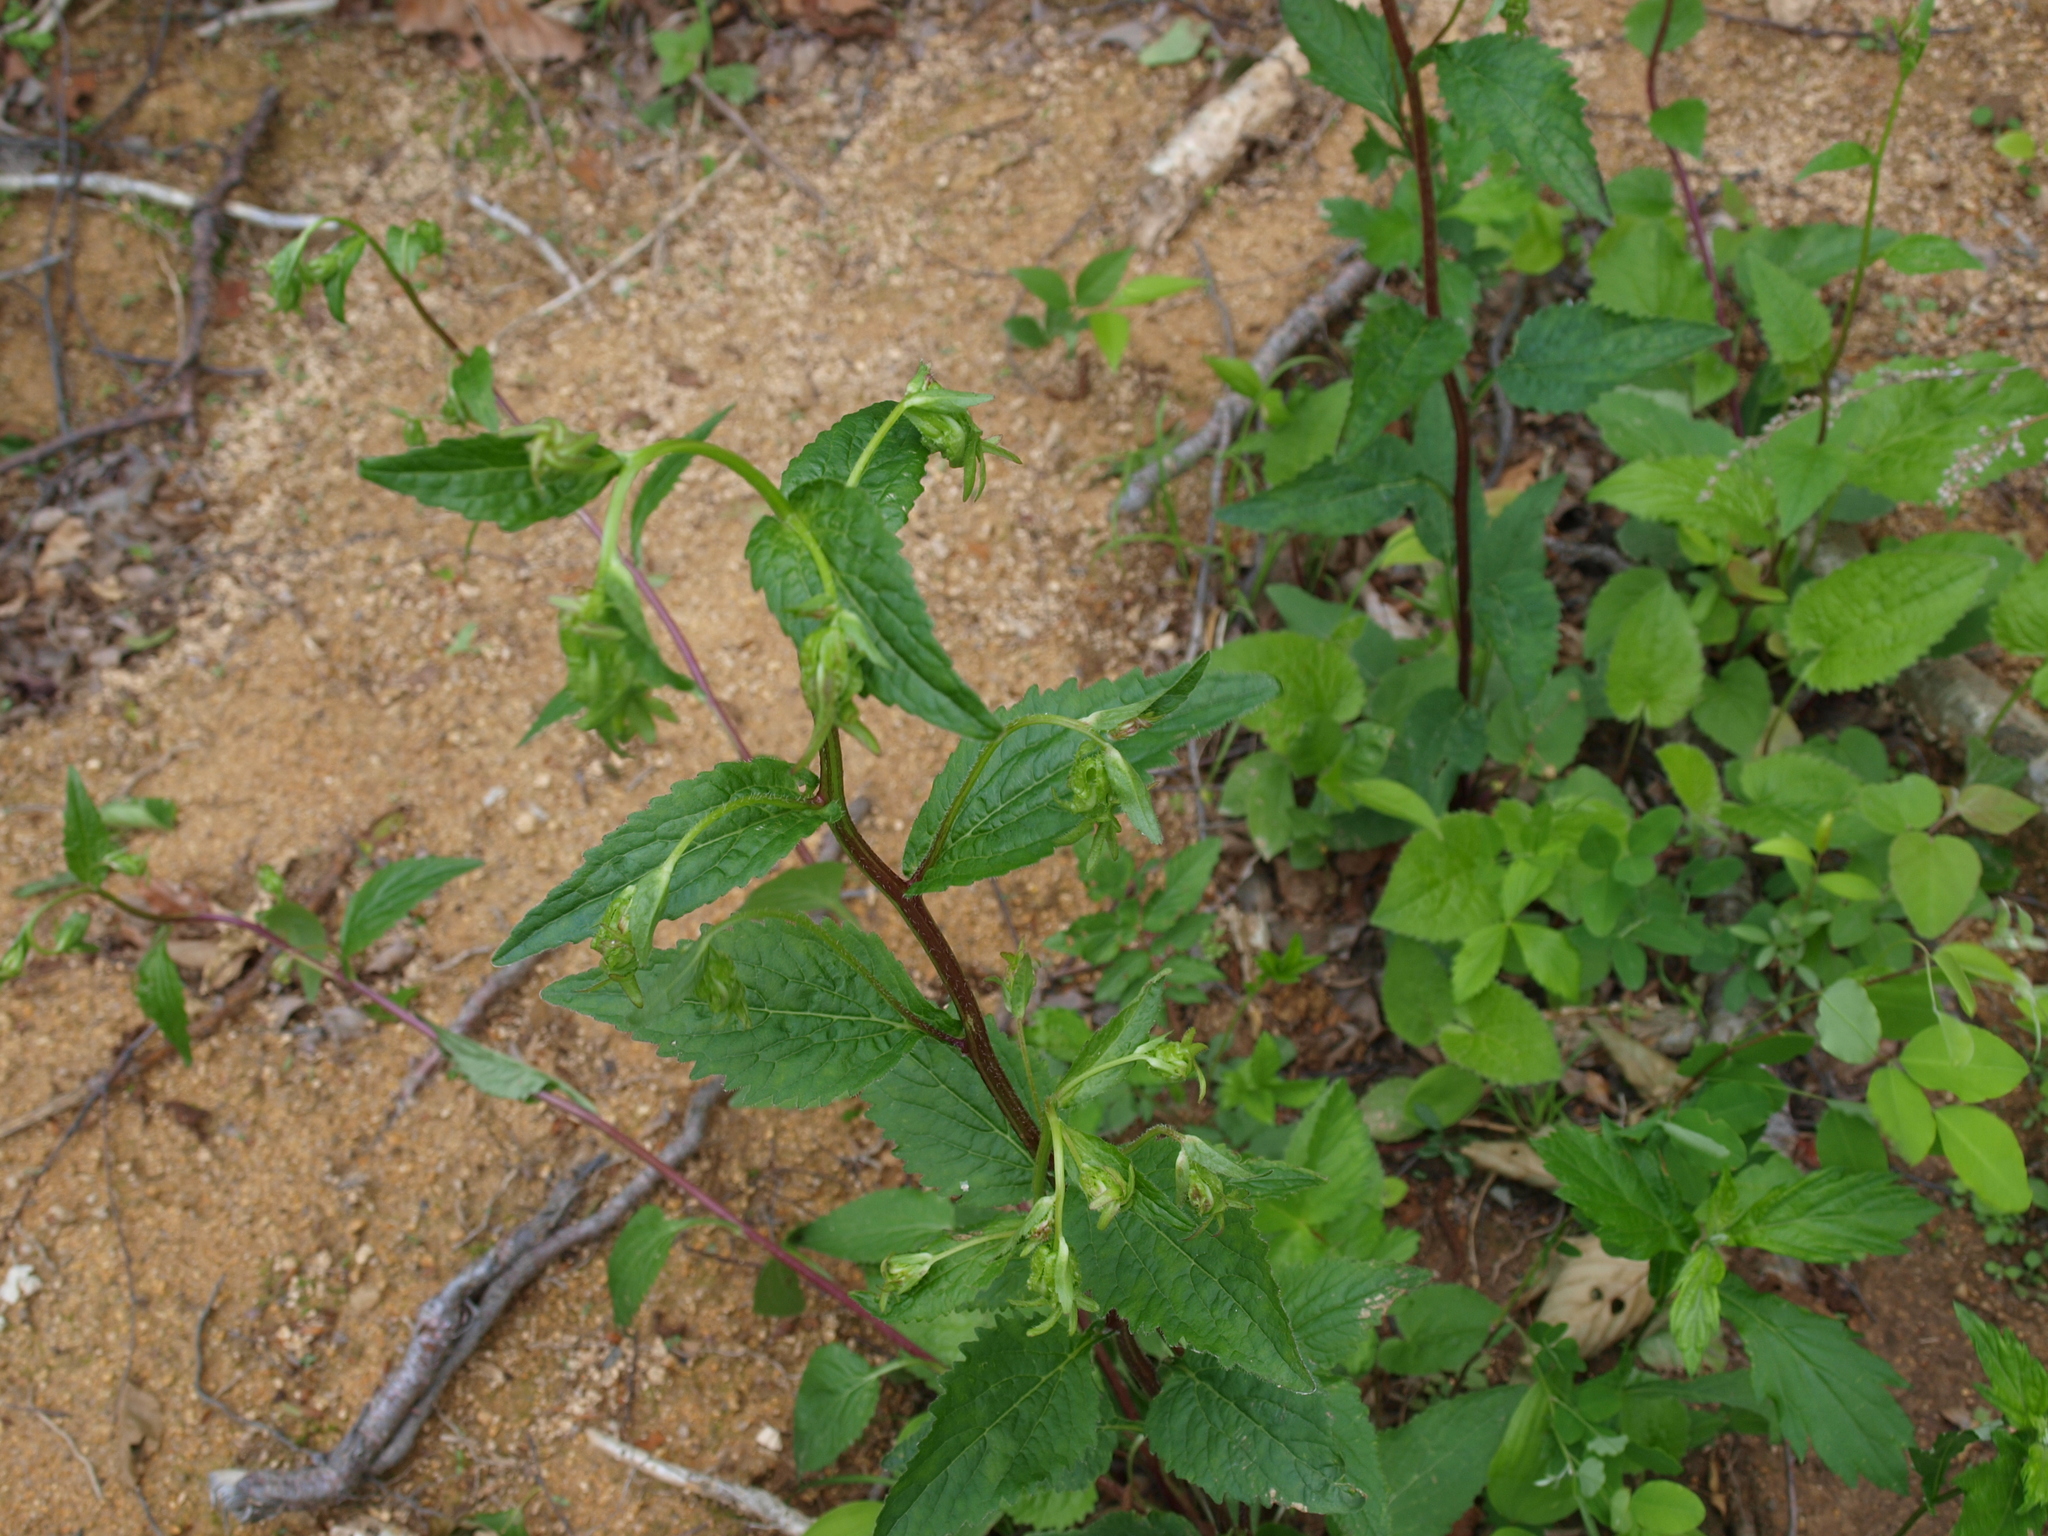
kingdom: Plantae
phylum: Tracheophyta
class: Magnoliopsida
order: Asterales
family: Campanulaceae
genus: Campanula
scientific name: Campanula punctata
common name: Spotted bellflower
